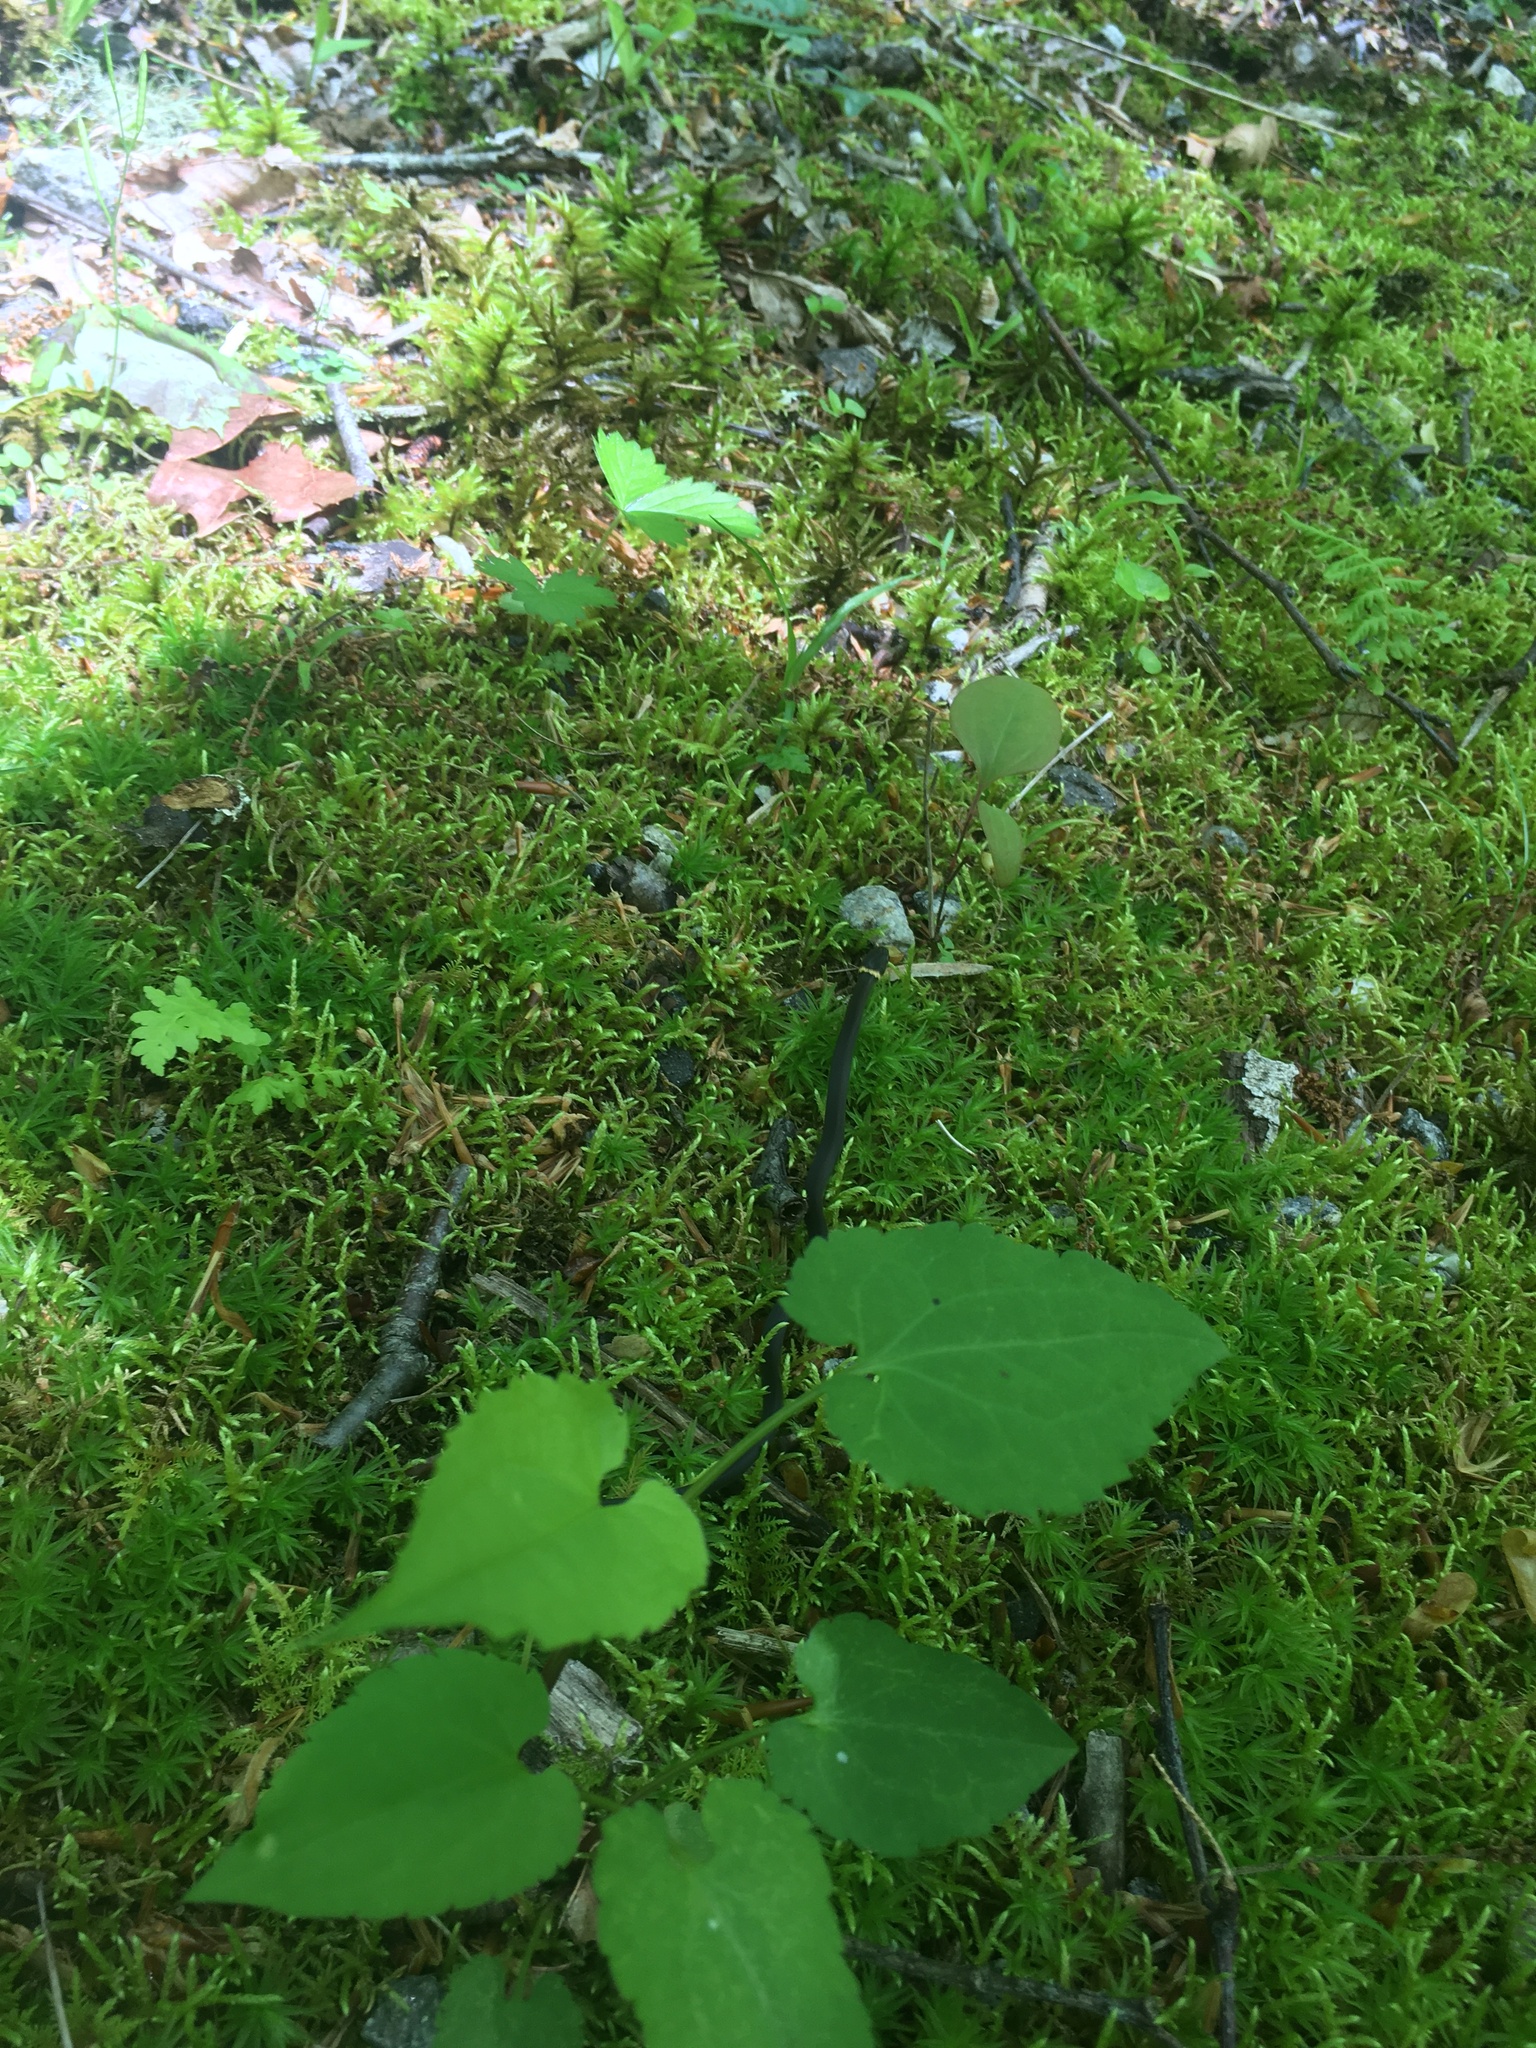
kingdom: Animalia
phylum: Chordata
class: Squamata
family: Colubridae
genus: Diadophis
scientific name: Diadophis punctatus
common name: Ringneck snake
